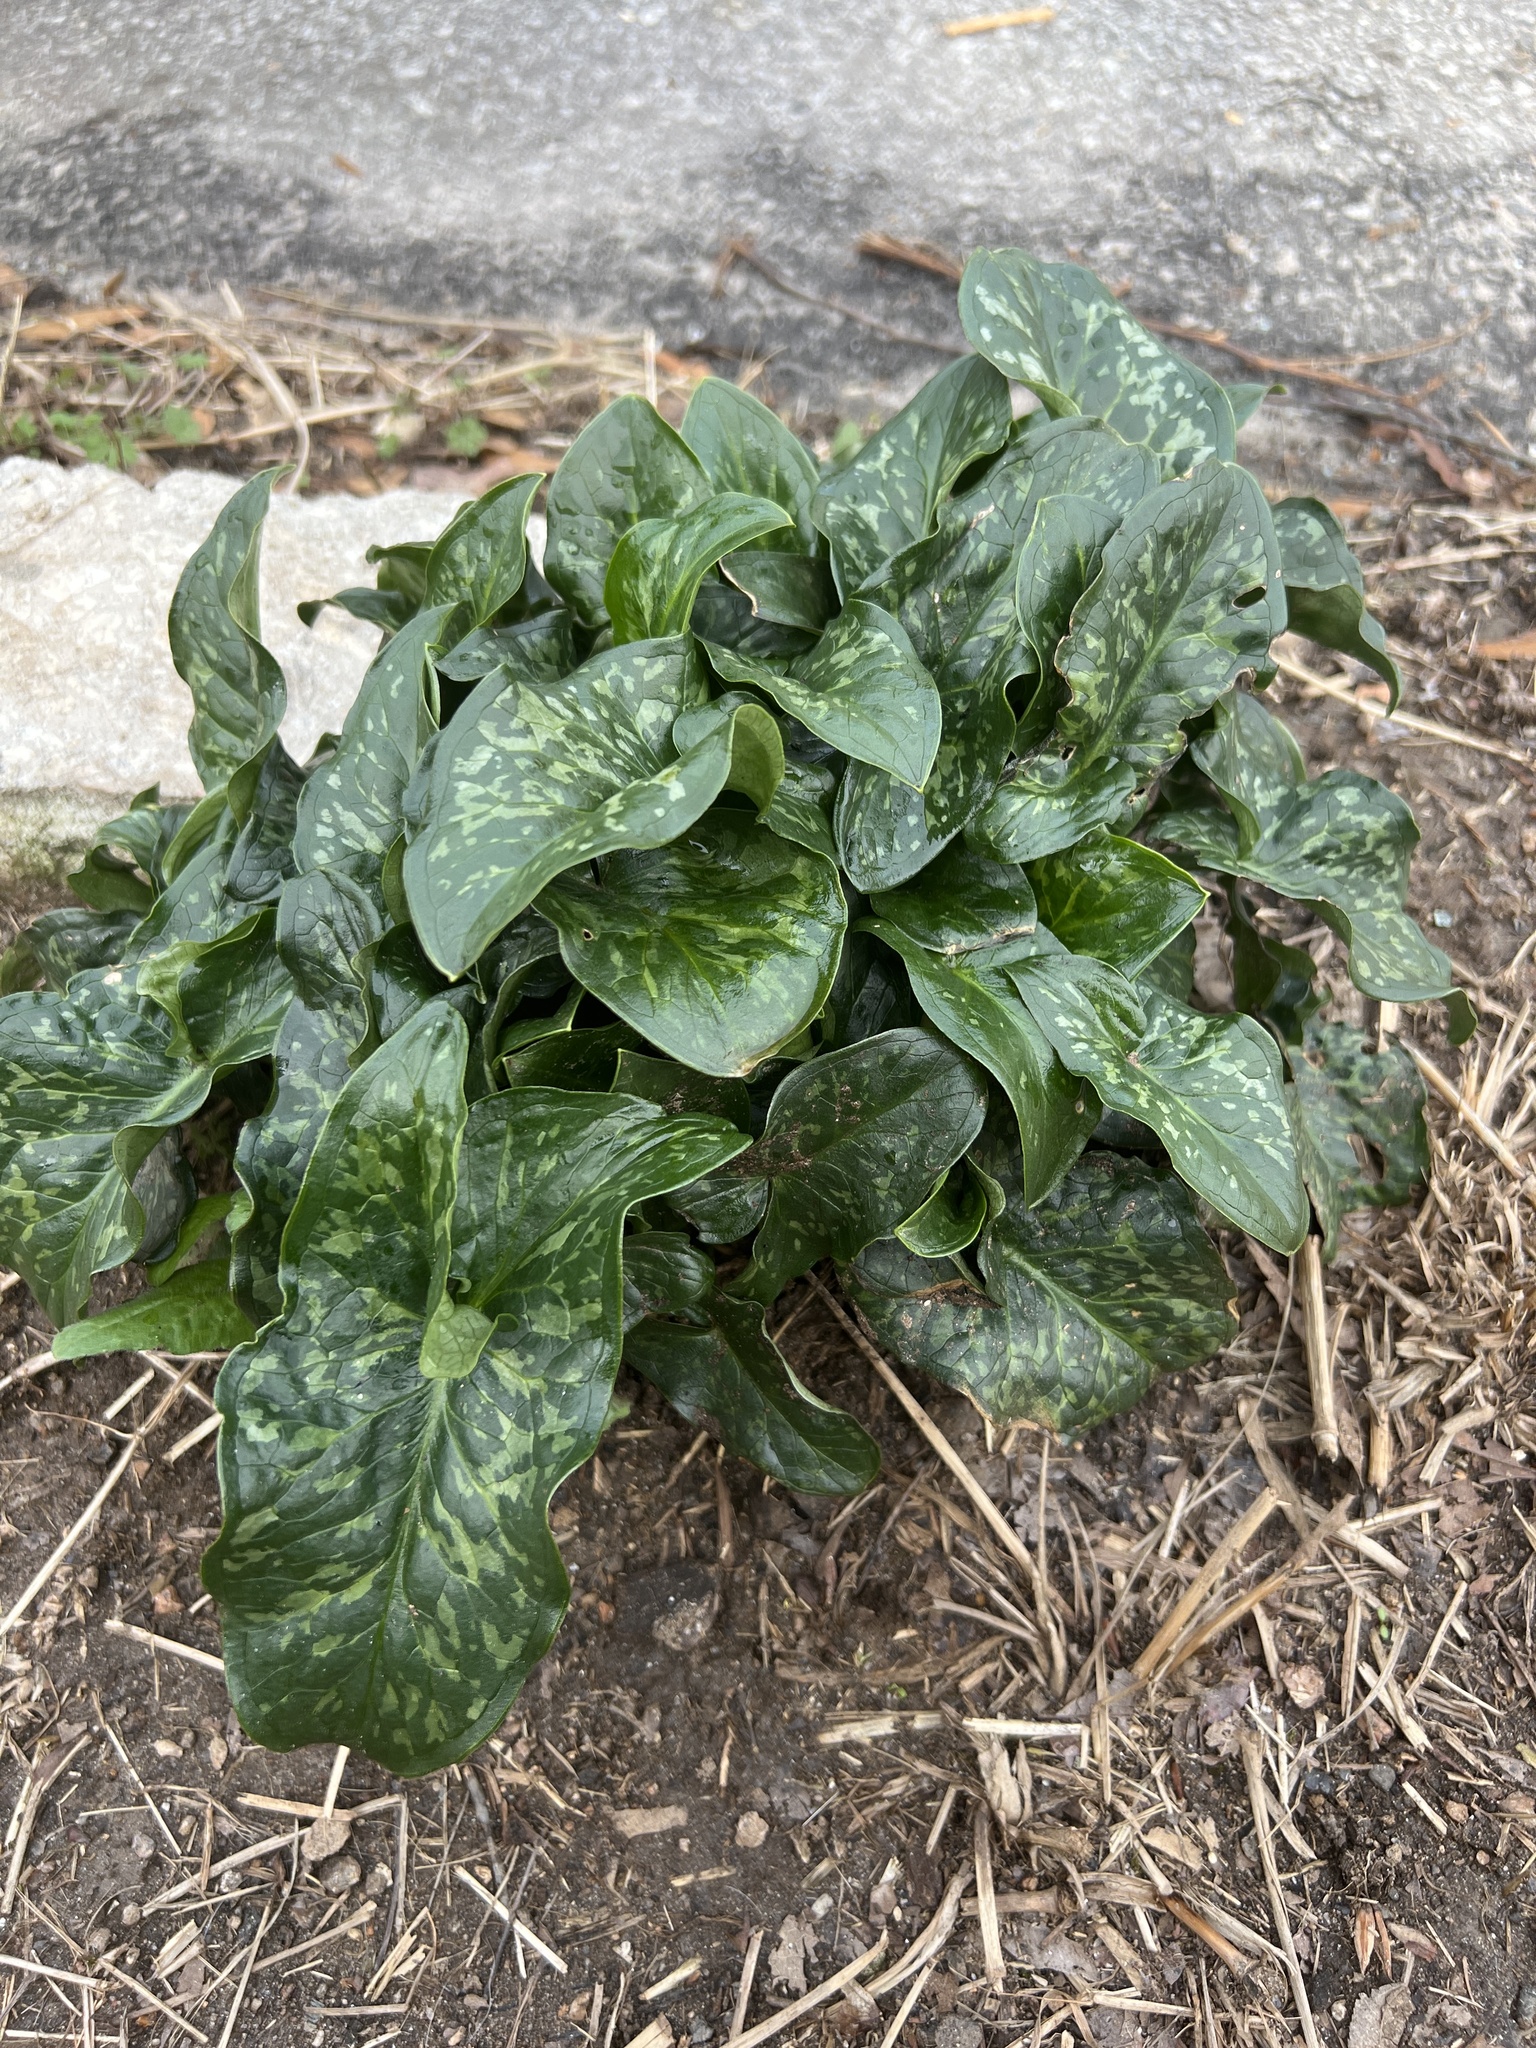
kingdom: Plantae
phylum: Tracheophyta
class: Liliopsida
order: Alismatales
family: Araceae
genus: Arum
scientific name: Arum italicum
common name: Italian lords-and-ladies
